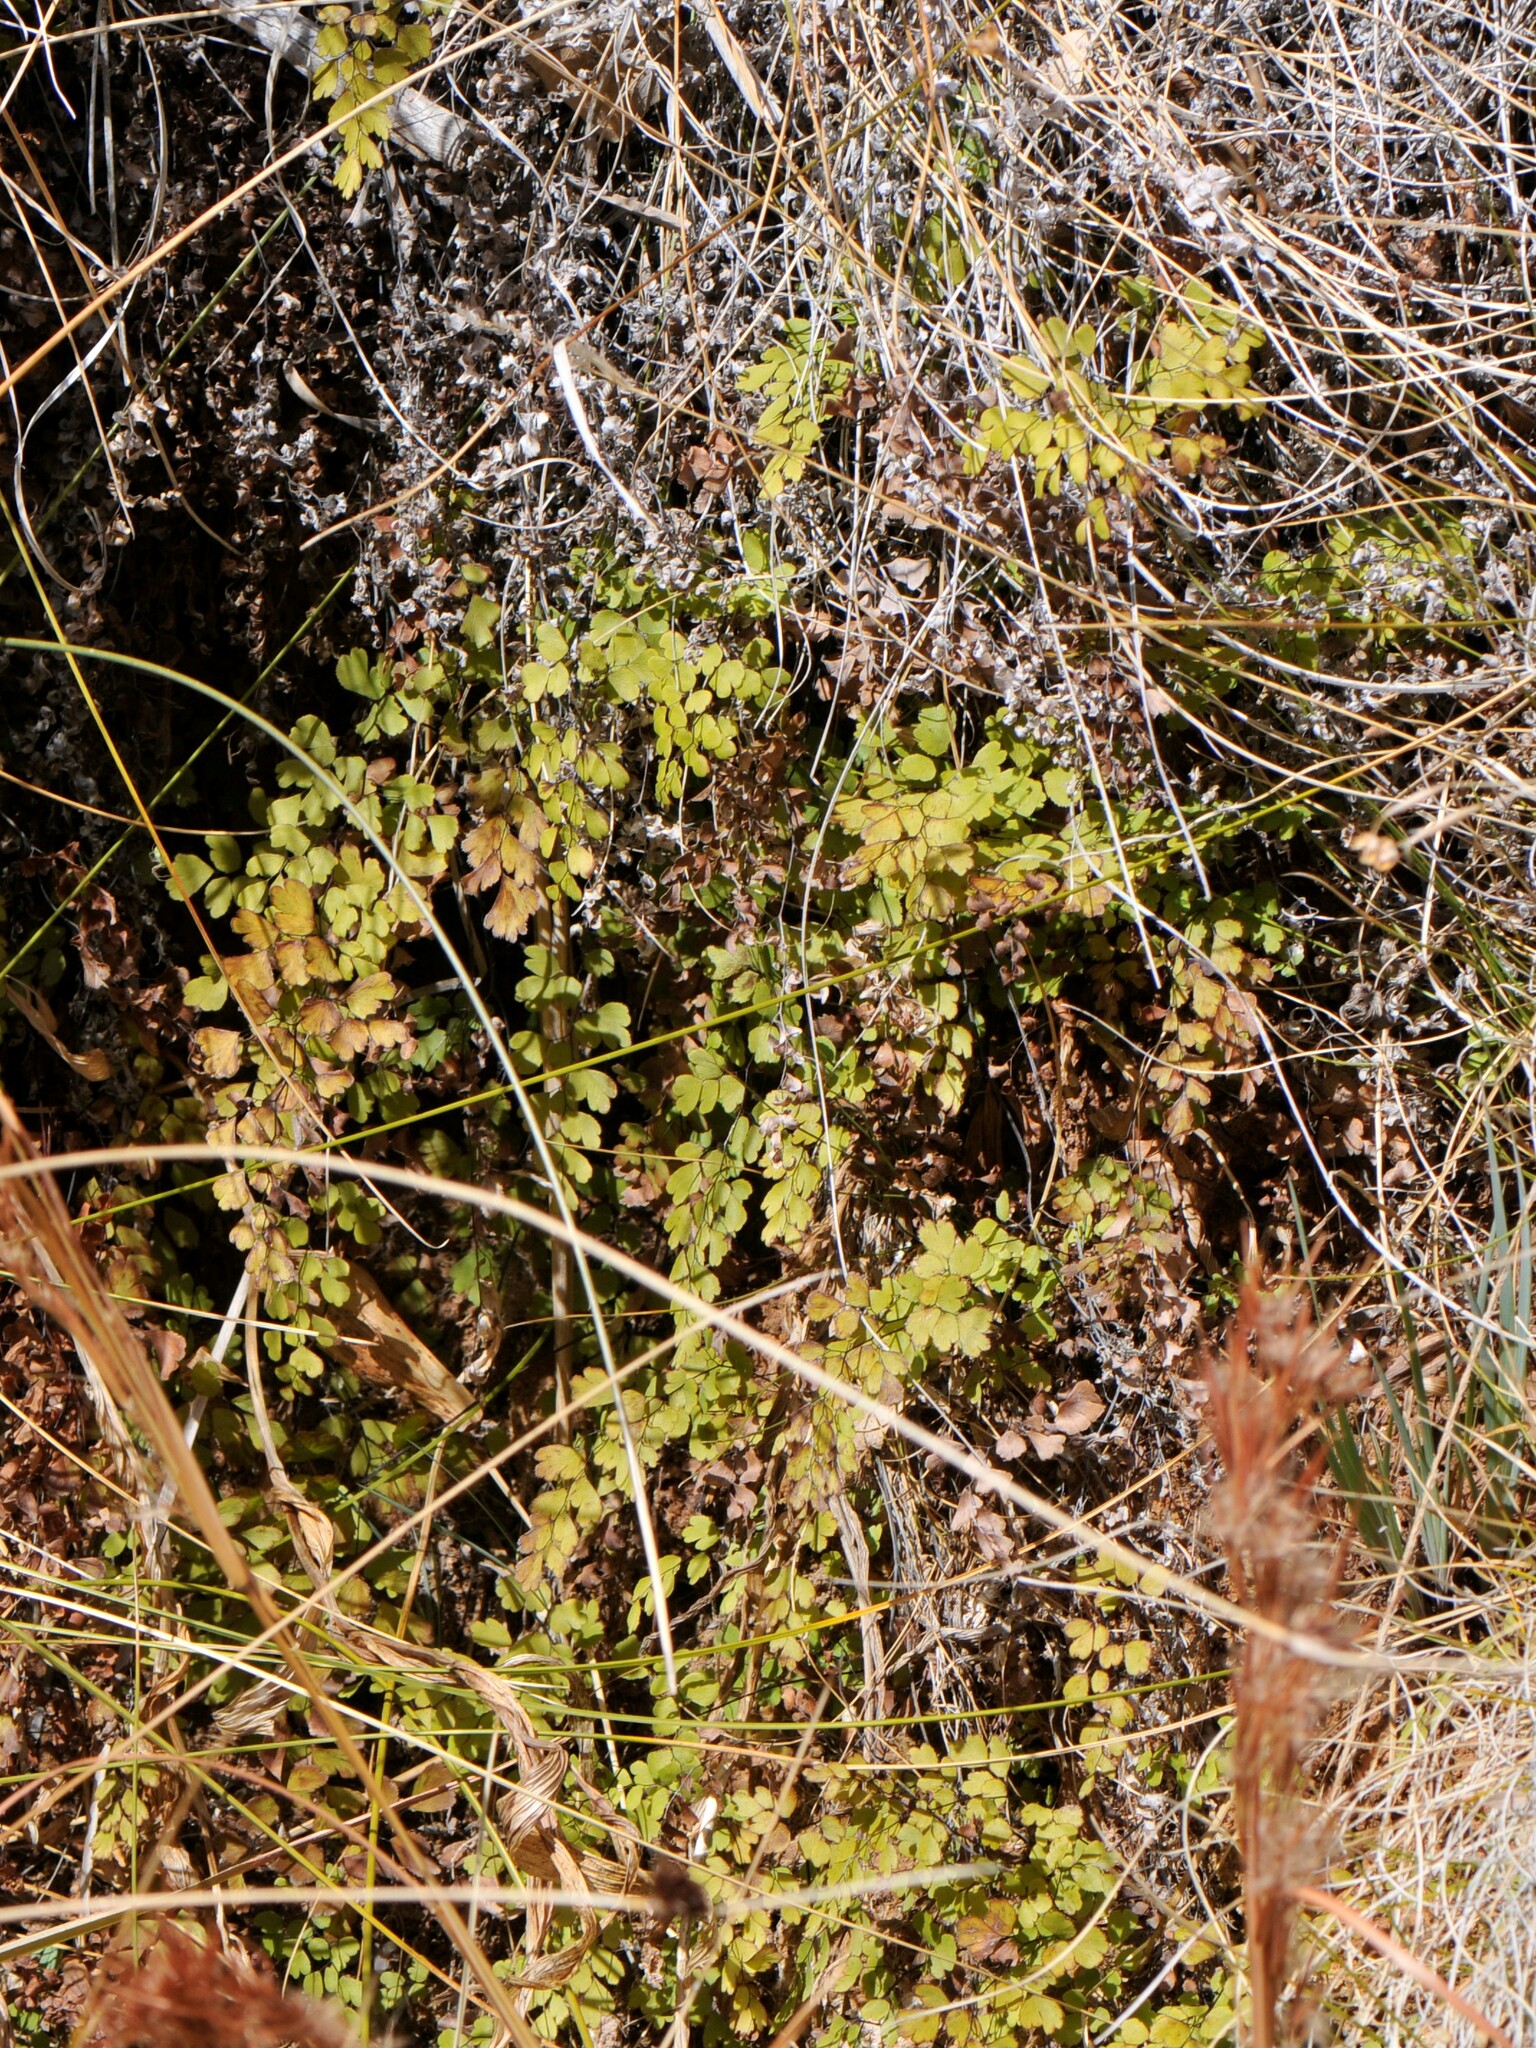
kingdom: Plantae
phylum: Tracheophyta
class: Polypodiopsida
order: Polypodiales
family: Pteridaceae
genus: Adiantum
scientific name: Adiantum capillus-veneris
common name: Maidenhair fern
